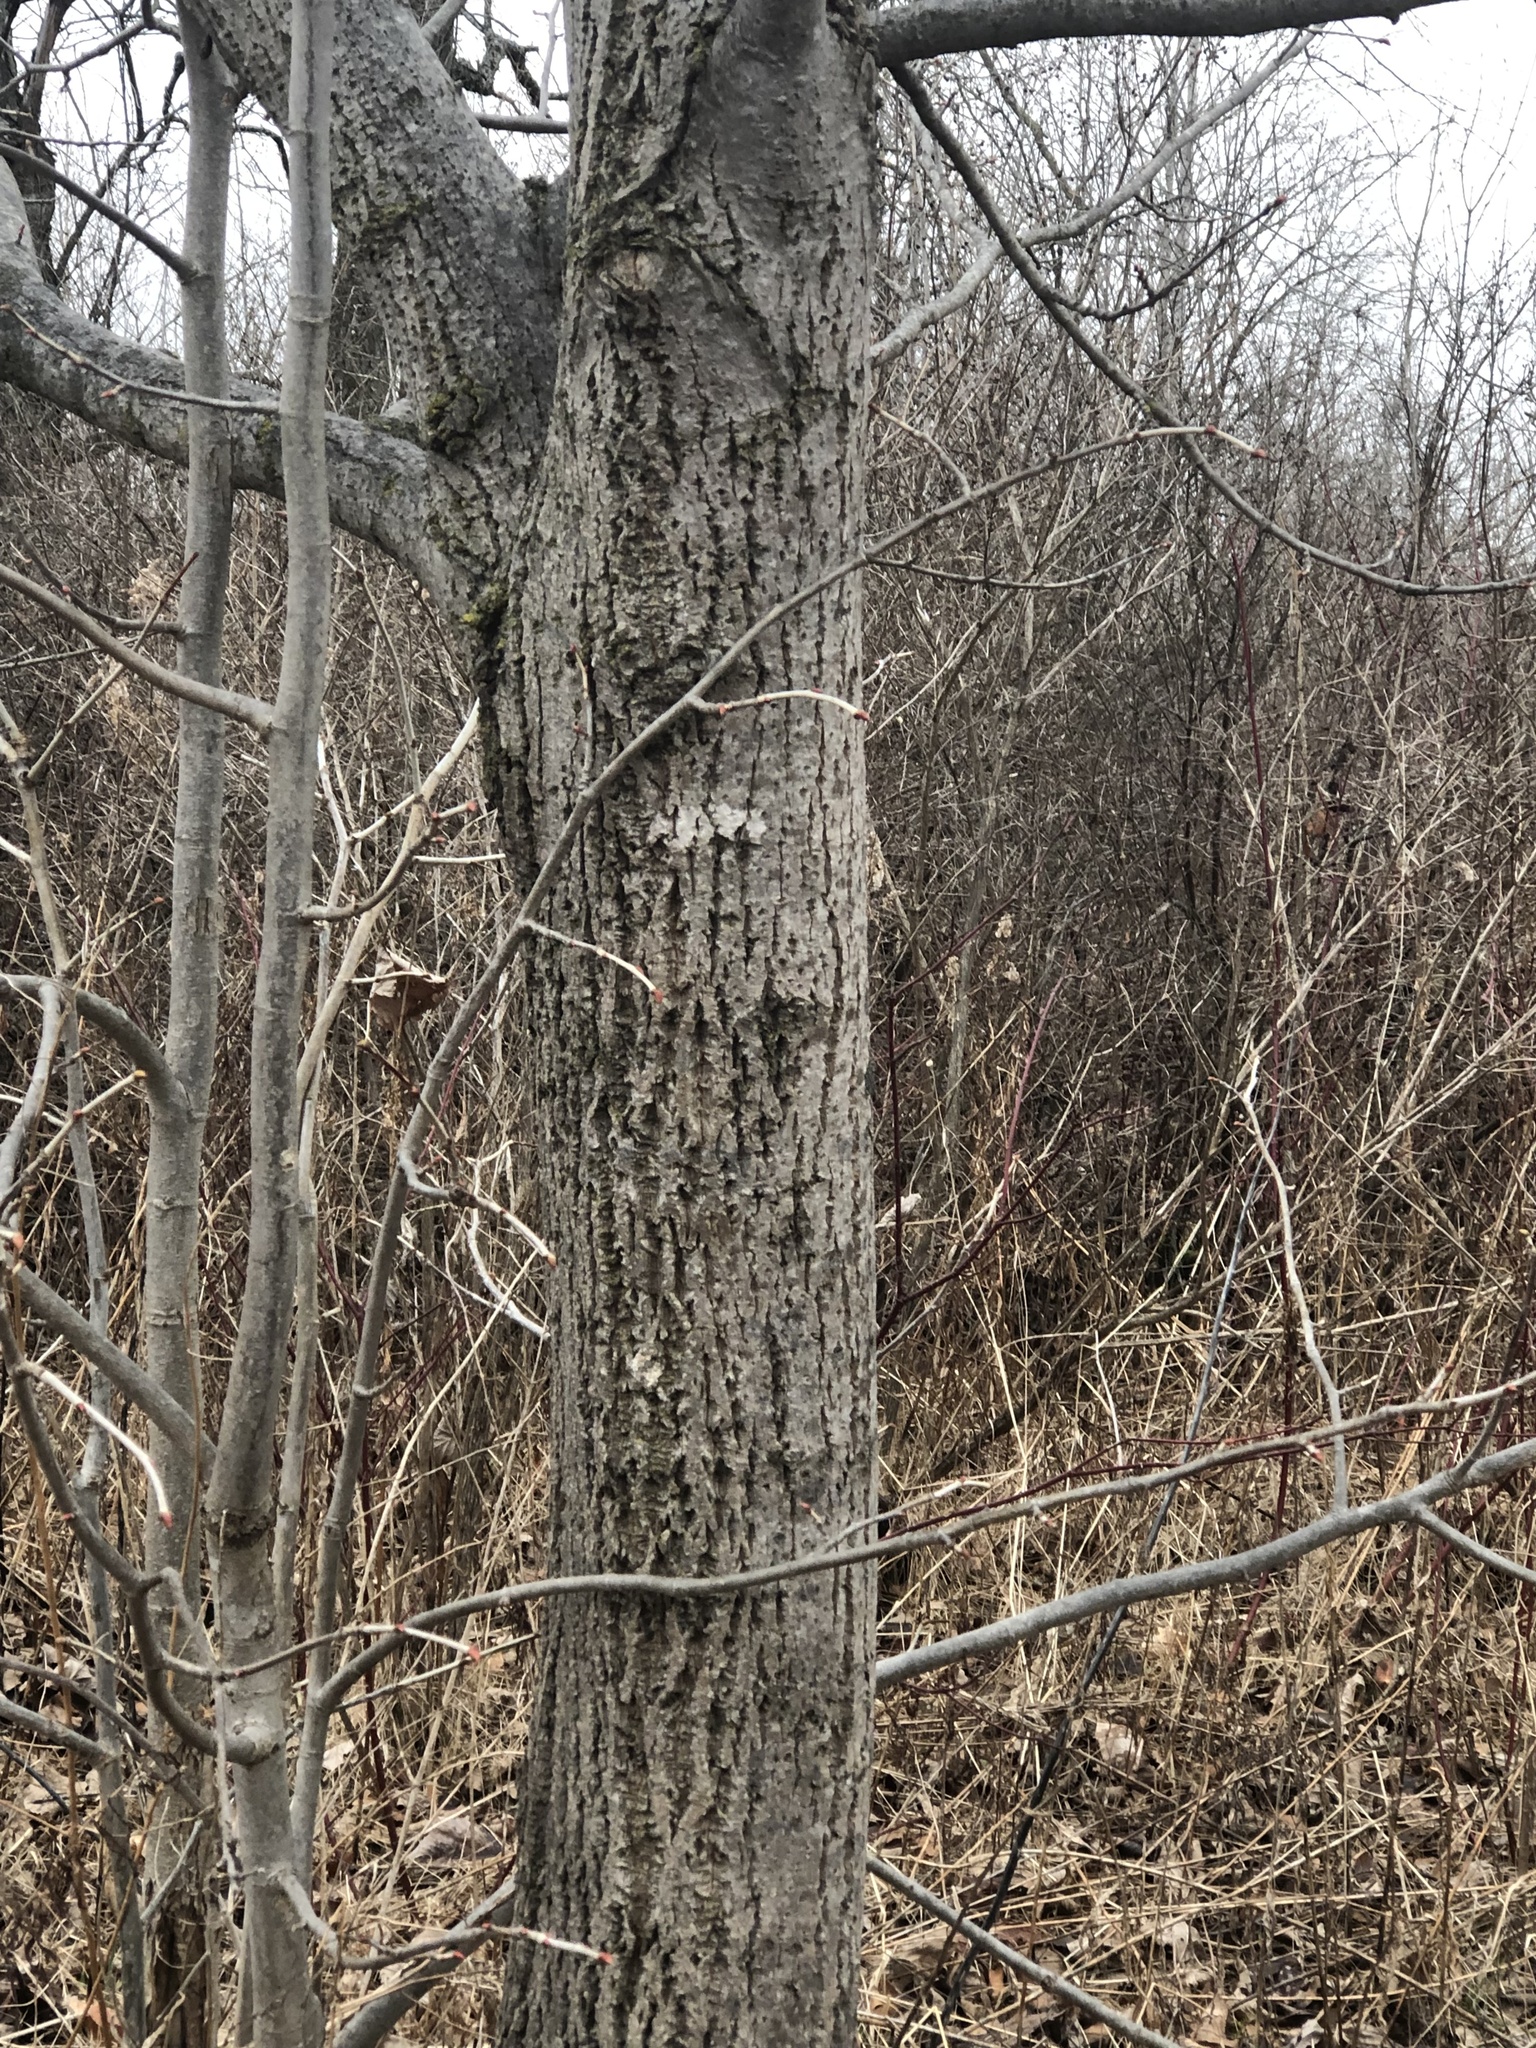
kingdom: Plantae
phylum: Tracheophyta
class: Magnoliopsida
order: Malvales
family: Malvaceae
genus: Tilia
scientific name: Tilia americana
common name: Basswood
